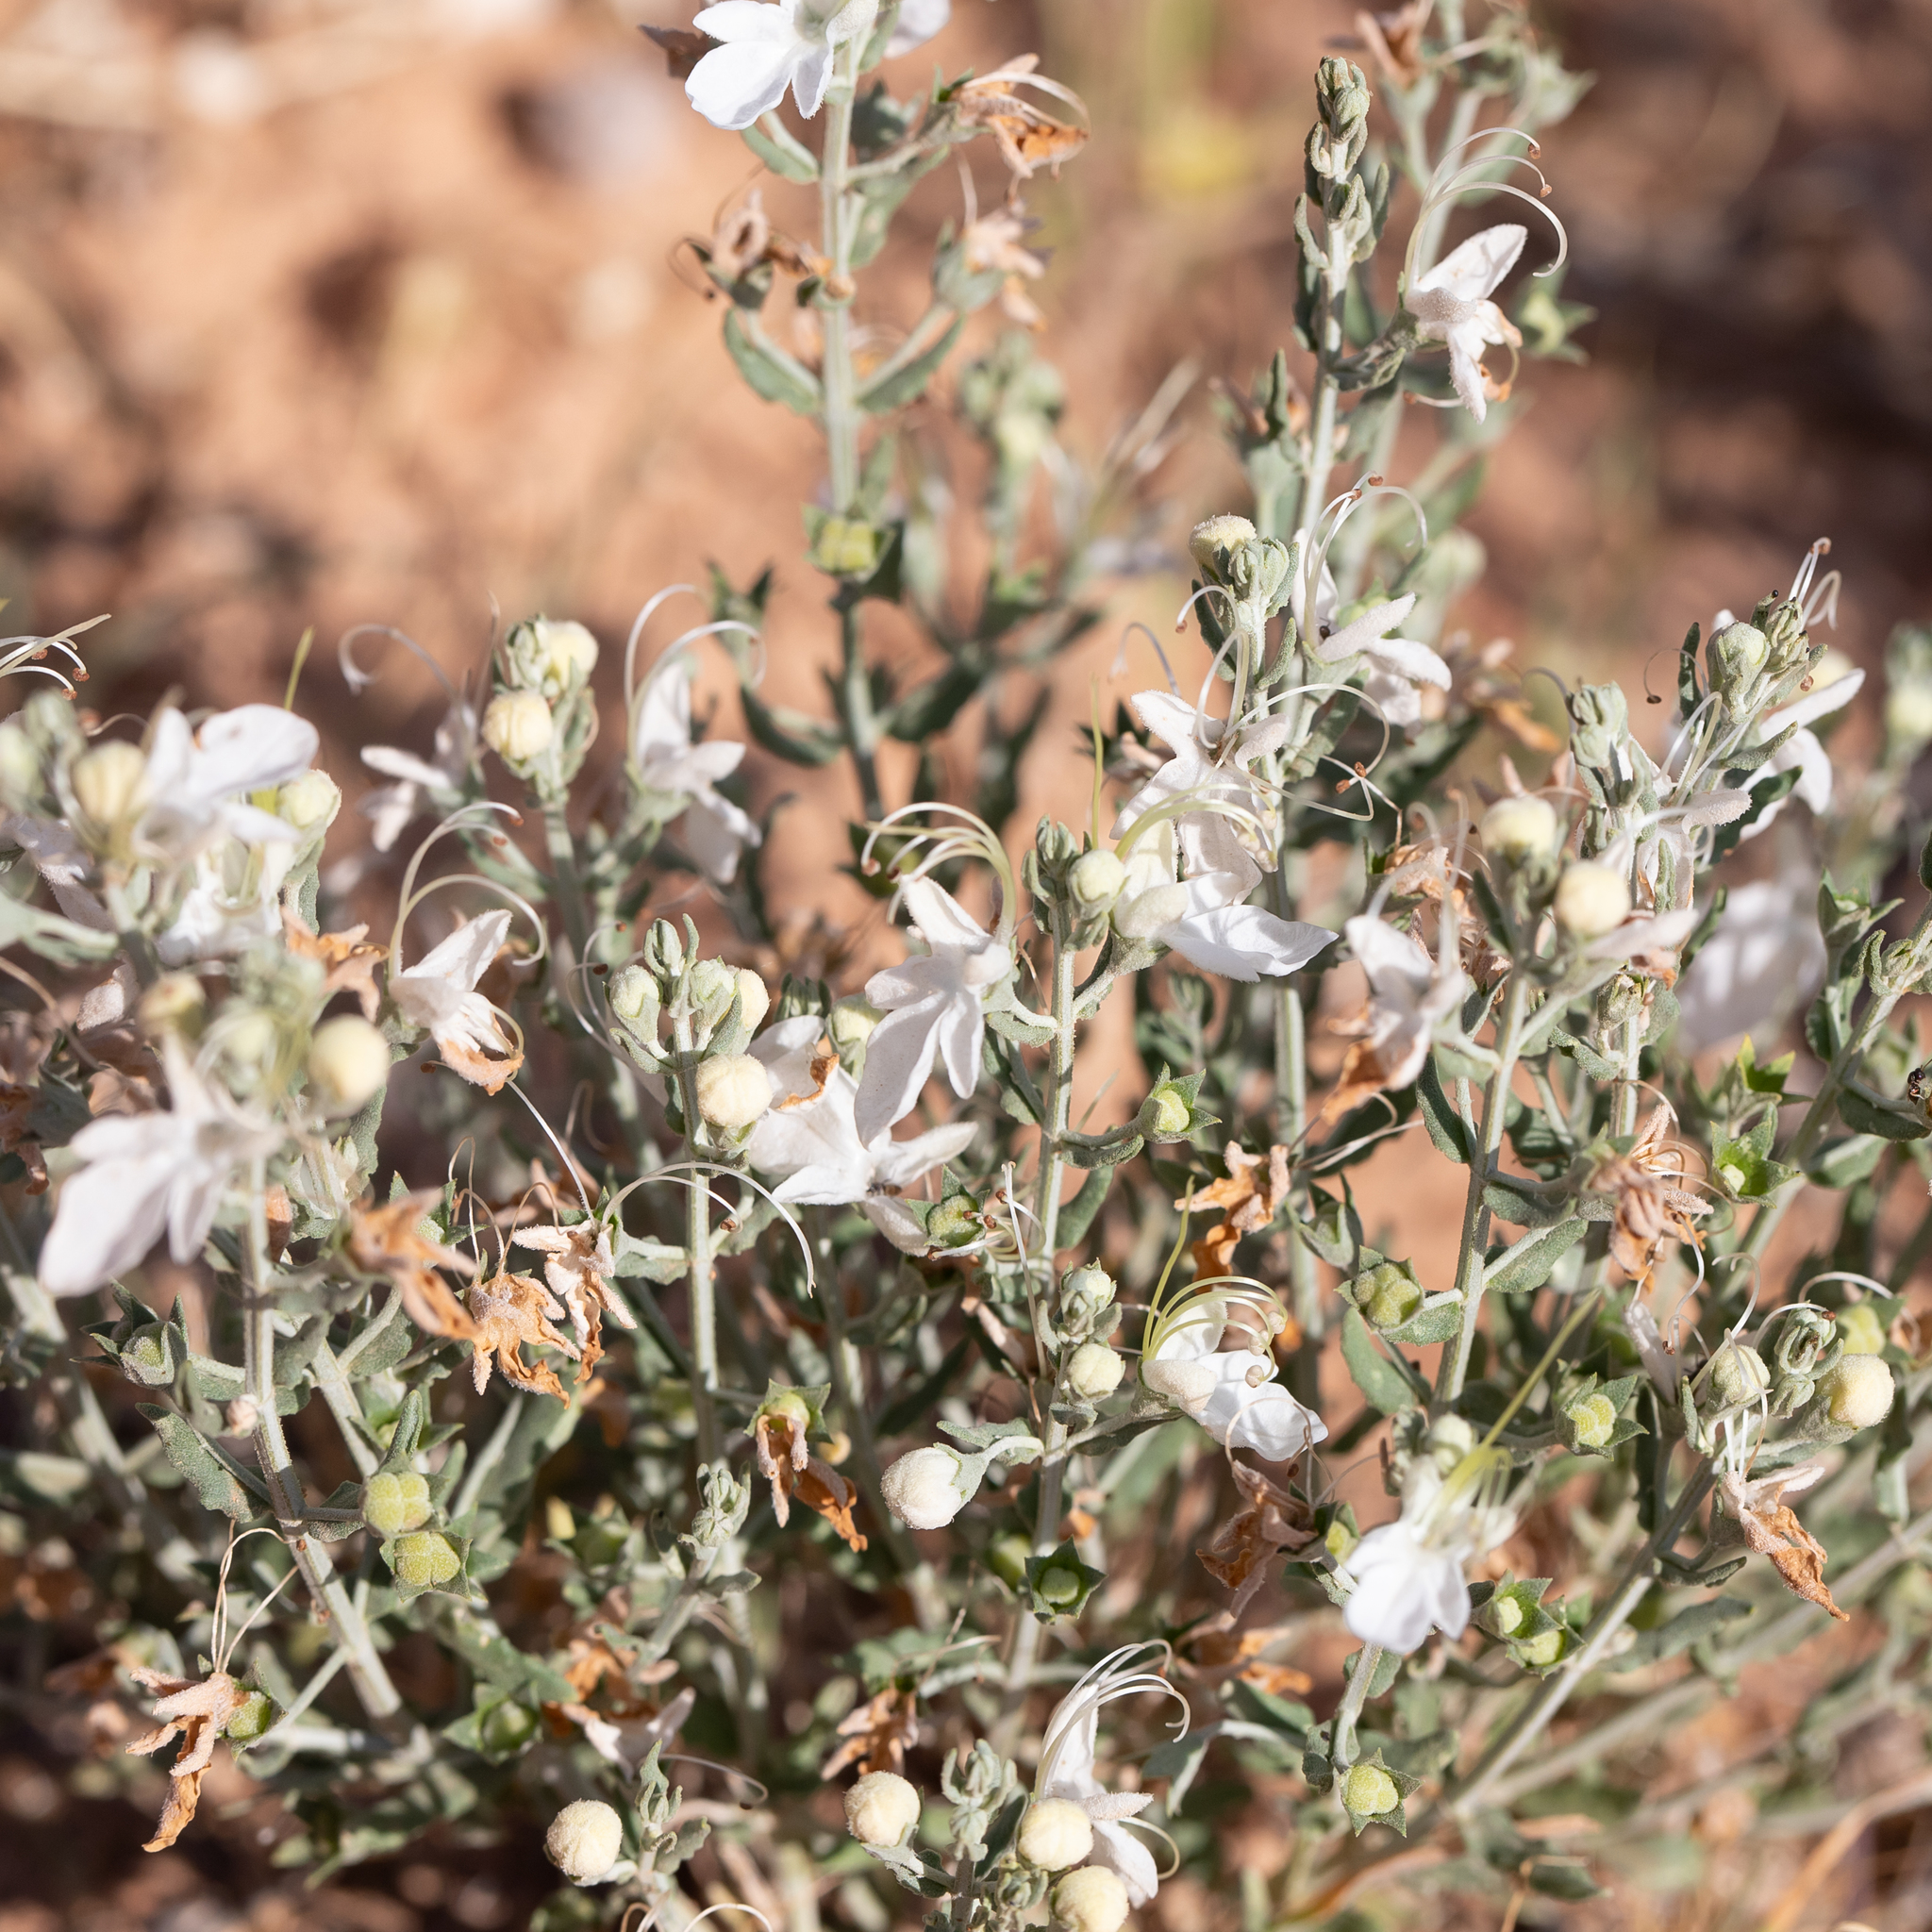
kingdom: Plantae
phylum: Tracheophyta
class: Magnoliopsida
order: Lamiales
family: Lamiaceae
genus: Teucrium
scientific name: Teucrium racemosum
